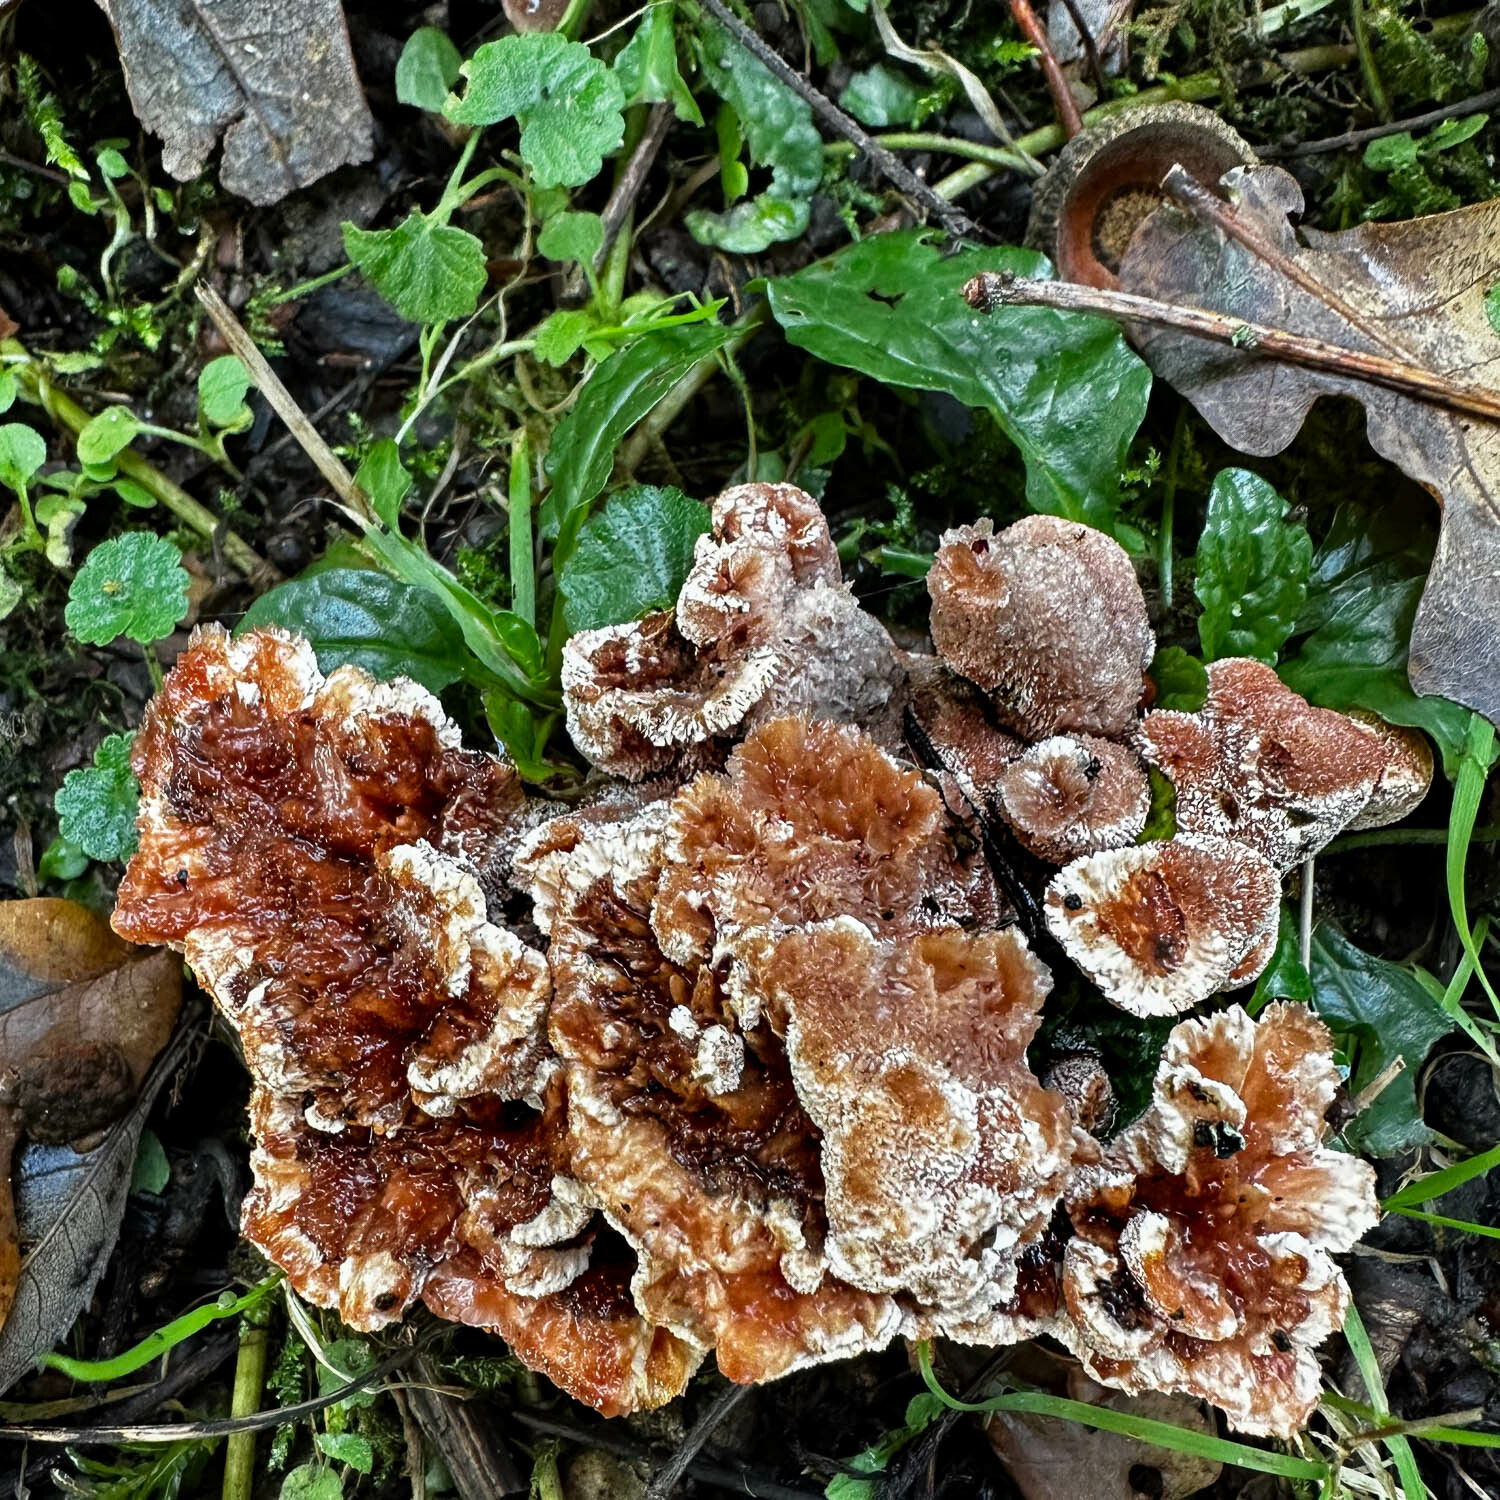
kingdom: Fungi
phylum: Basidiomycota
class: Agaricomycetes
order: Polyporales
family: Podoscyphaceae
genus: Abortiporus
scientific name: Abortiporus biennis
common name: Blushing rosette
